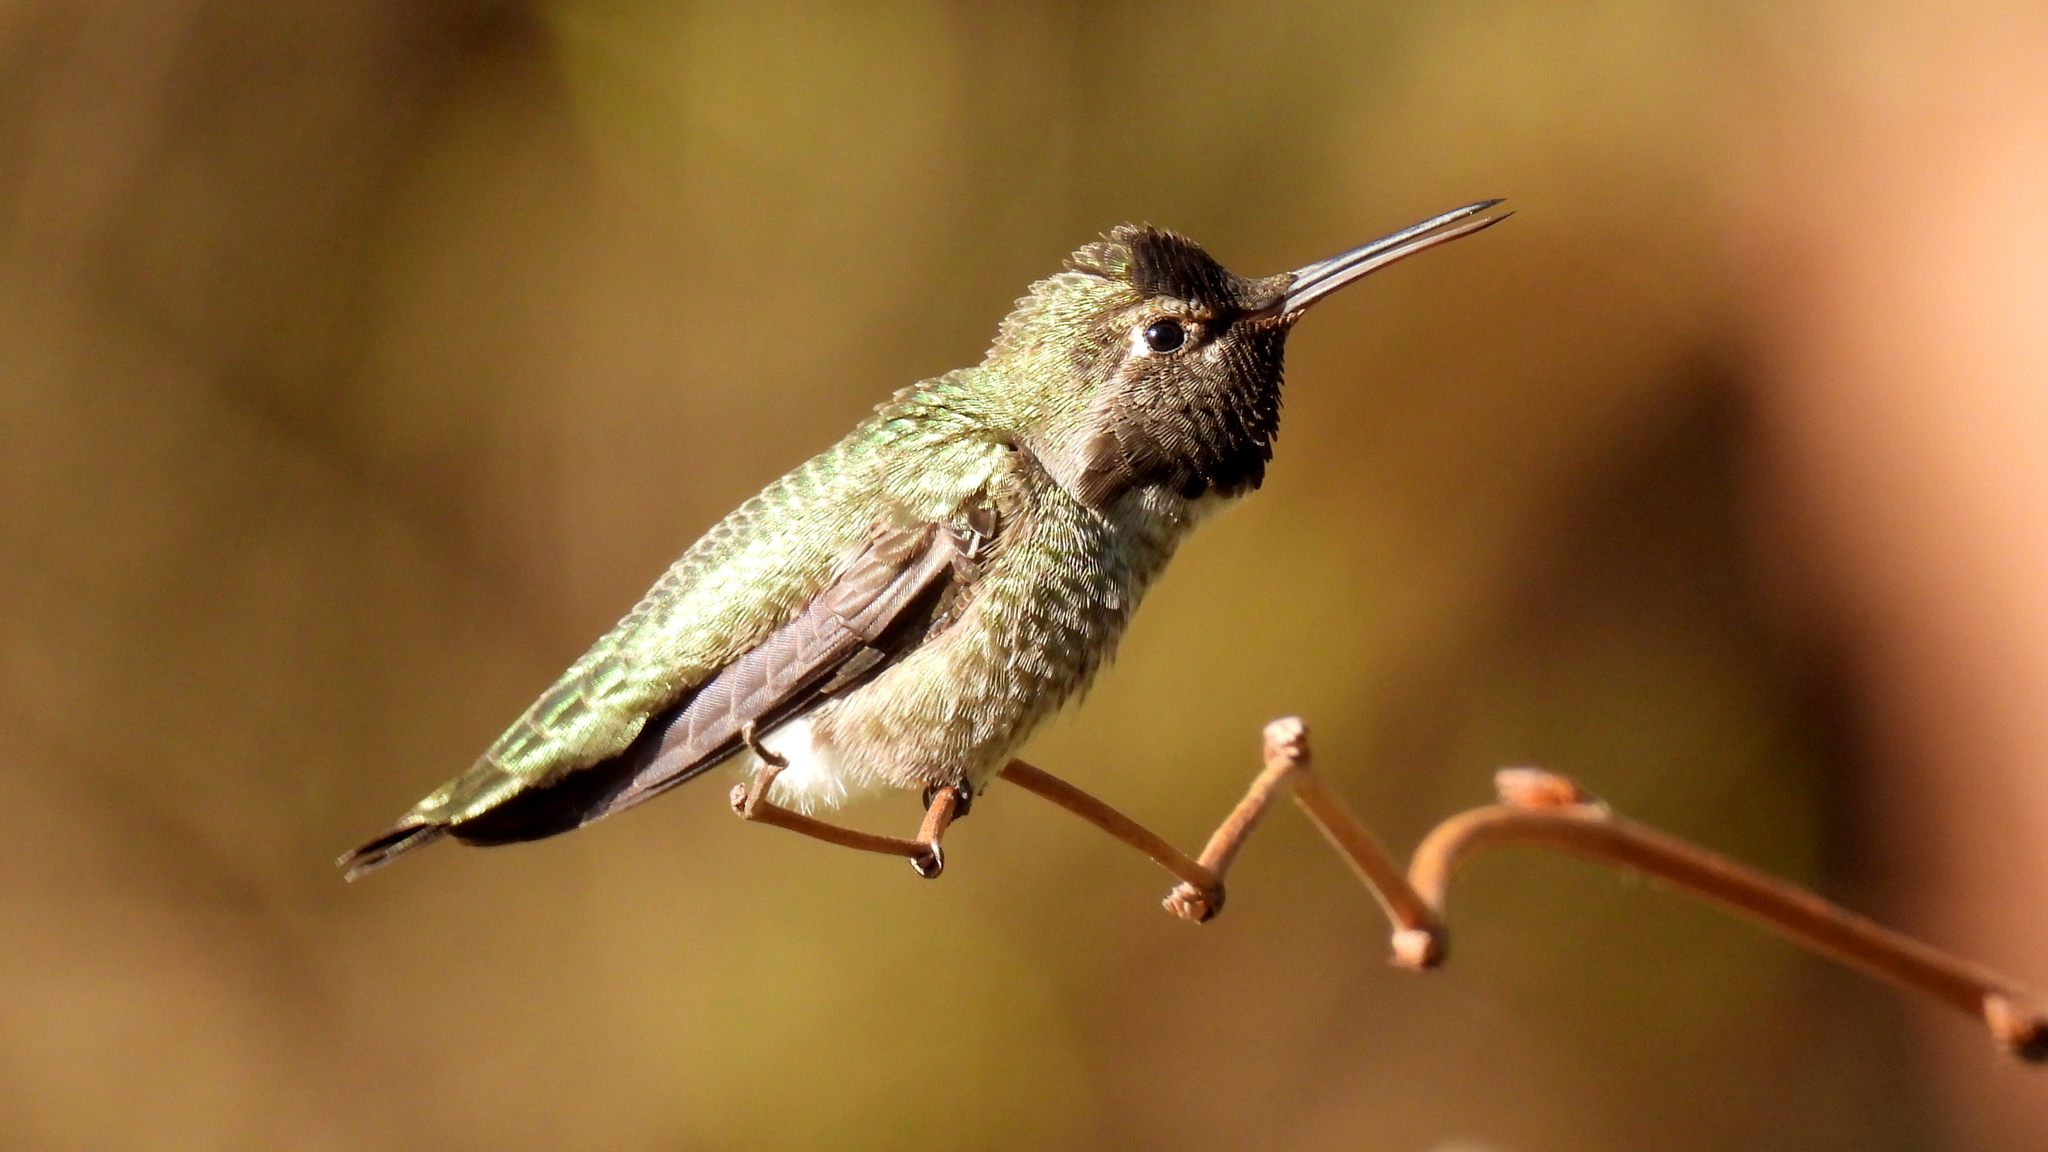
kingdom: Animalia
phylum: Chordata
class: Aves
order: Apodiformes
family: Trochilidae
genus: Calypte
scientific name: Calypte anna
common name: Anna's hummingbird
